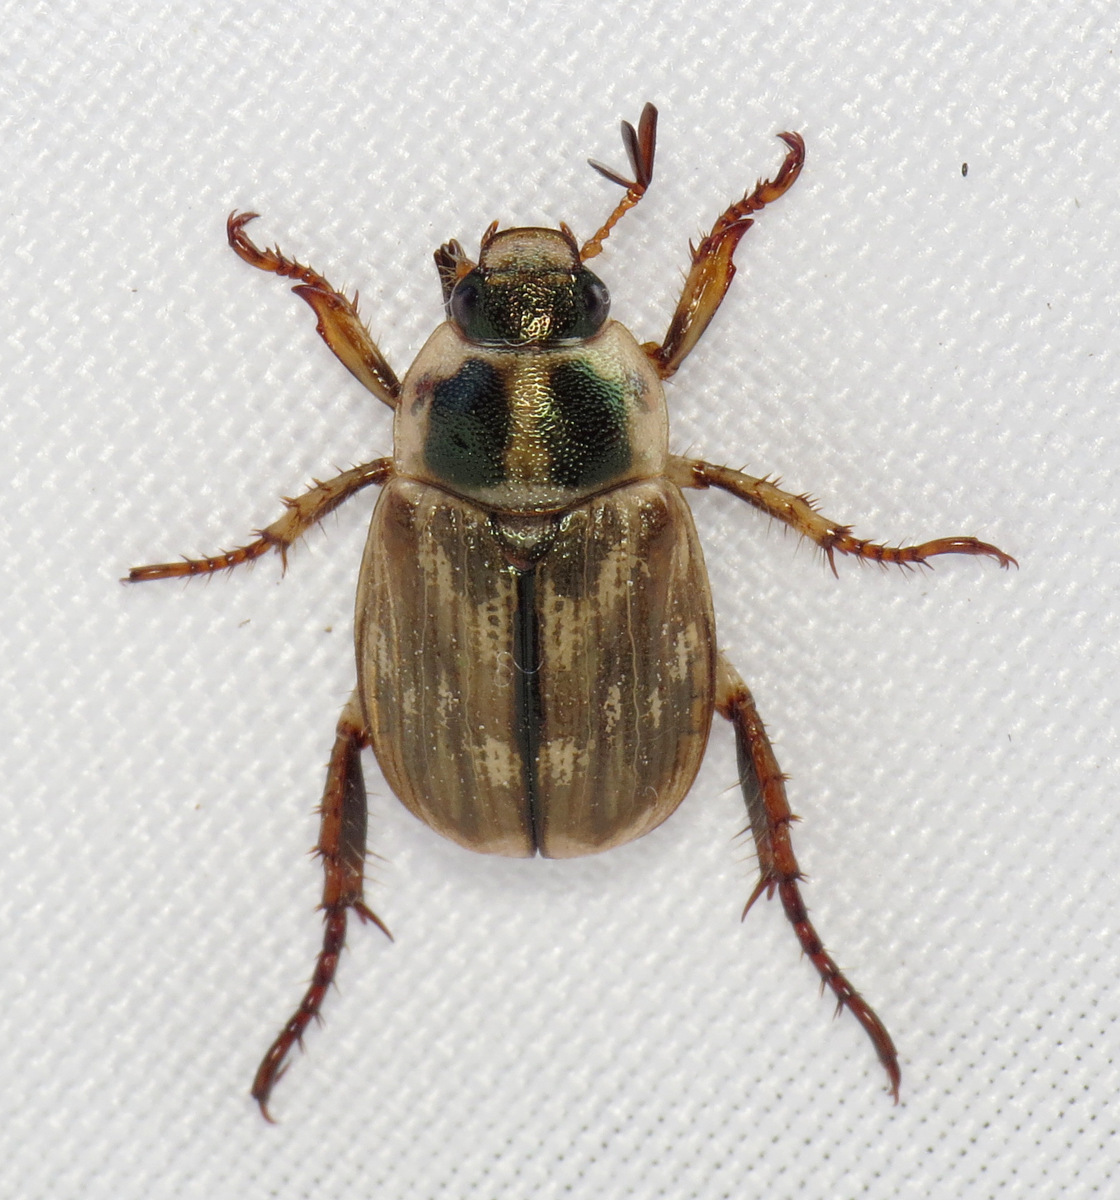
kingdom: Animalia
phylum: Arthropoda
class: Insecta
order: Coleoptera
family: Scarabaeidae
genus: Exomala
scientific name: Exomala orientalis
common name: Oriental beetle
